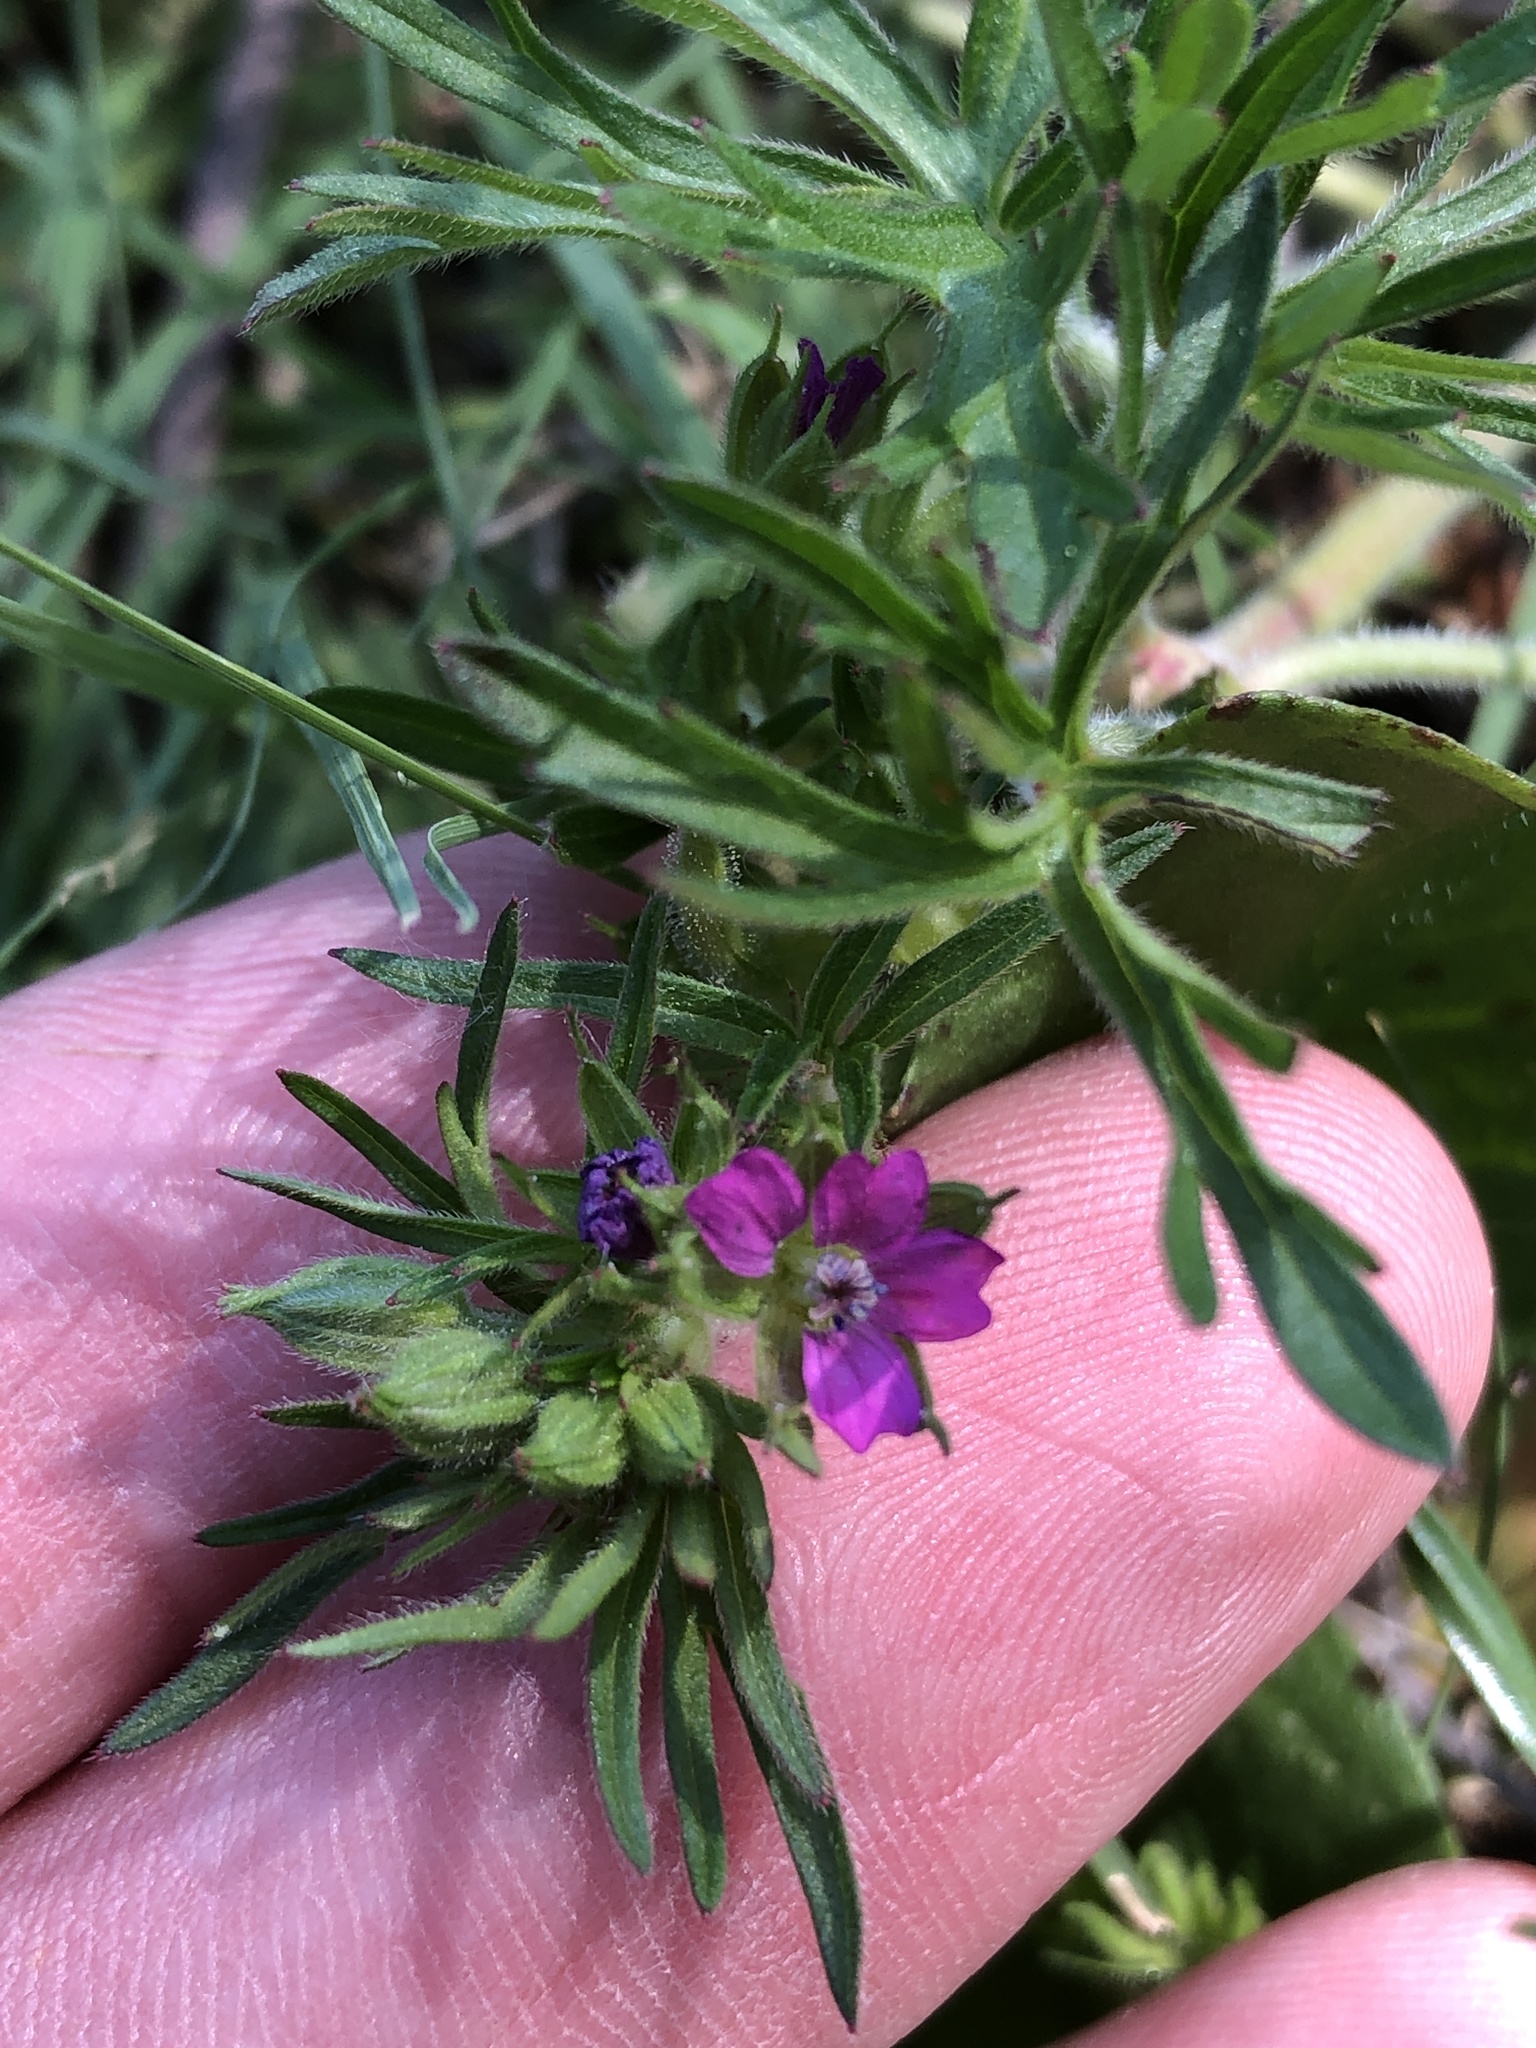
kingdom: Plantae
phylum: Tracheophyta
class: Magnoliopsida
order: Geraniales
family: Geraniaceae
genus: Geranium
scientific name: Geranium dissectum
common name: Cut-leaved crane's-bill
